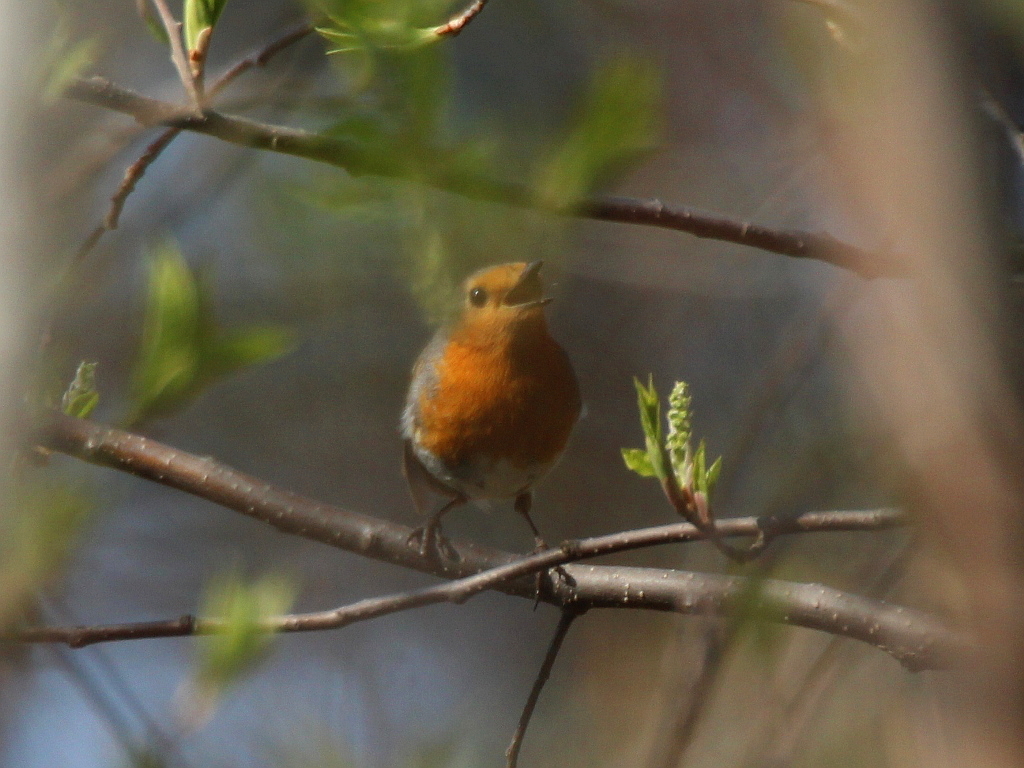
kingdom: Animalia
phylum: Chordata
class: Aves
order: Passeriformes
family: Muscicapidae
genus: Erithacus
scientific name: Erithacus rubecula
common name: European robin
